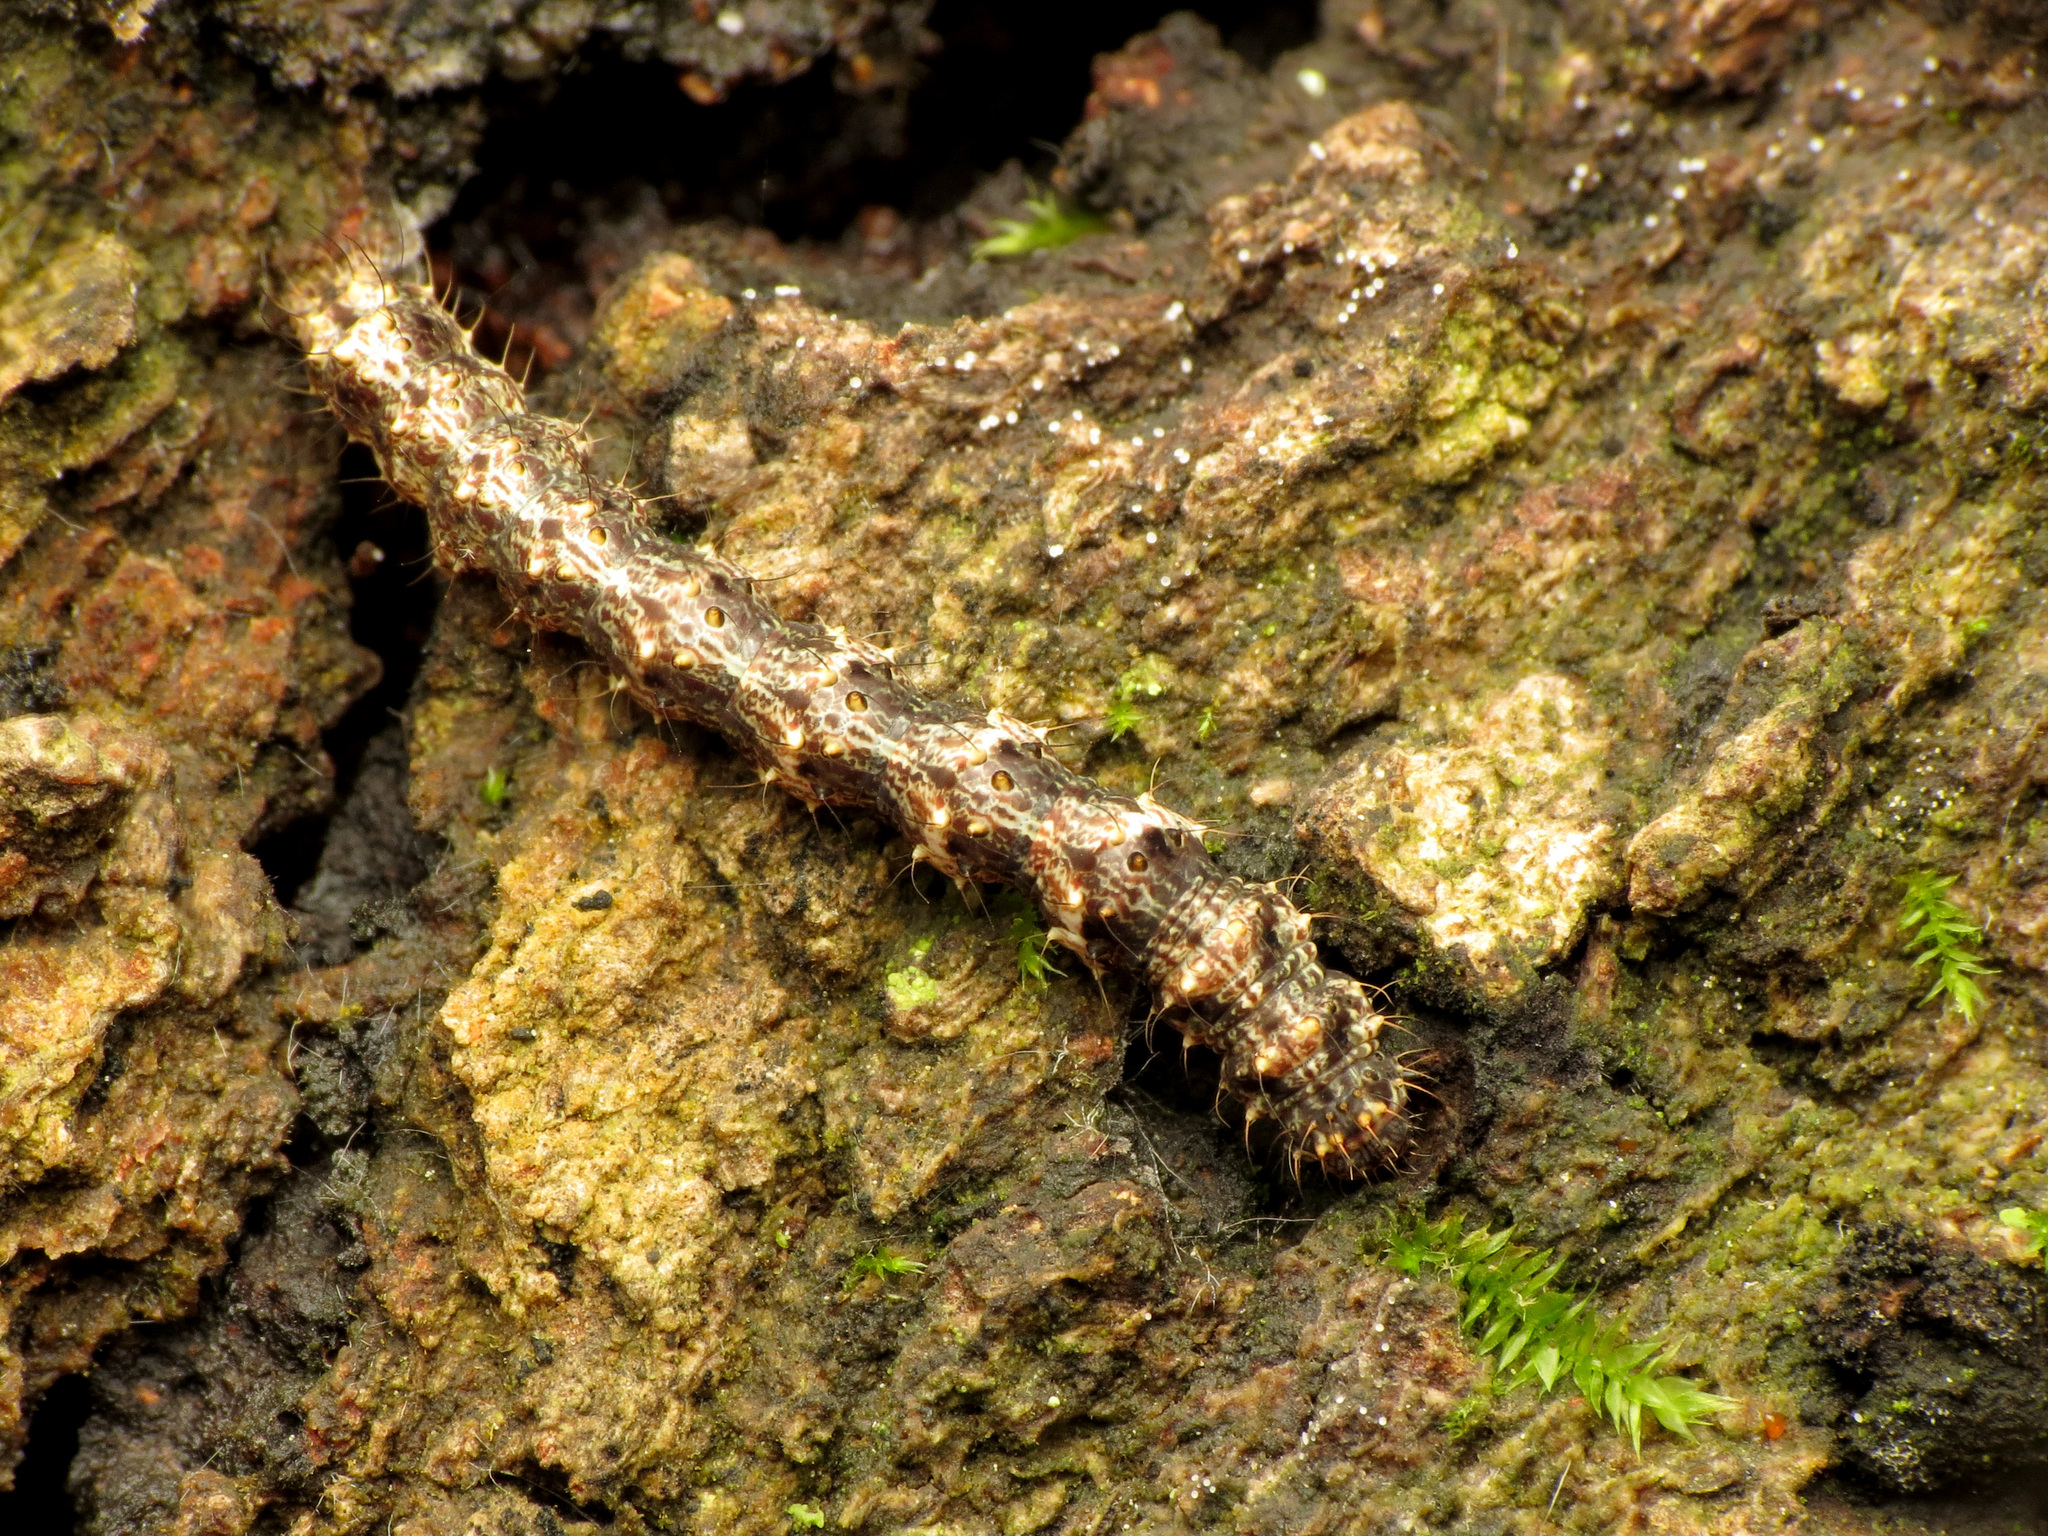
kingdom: Animalia
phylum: Arthropoda
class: Insecta
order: Lepidoptera
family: Erebidae
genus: Metalectra
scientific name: Metalectra discalis
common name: Common fungus moth
